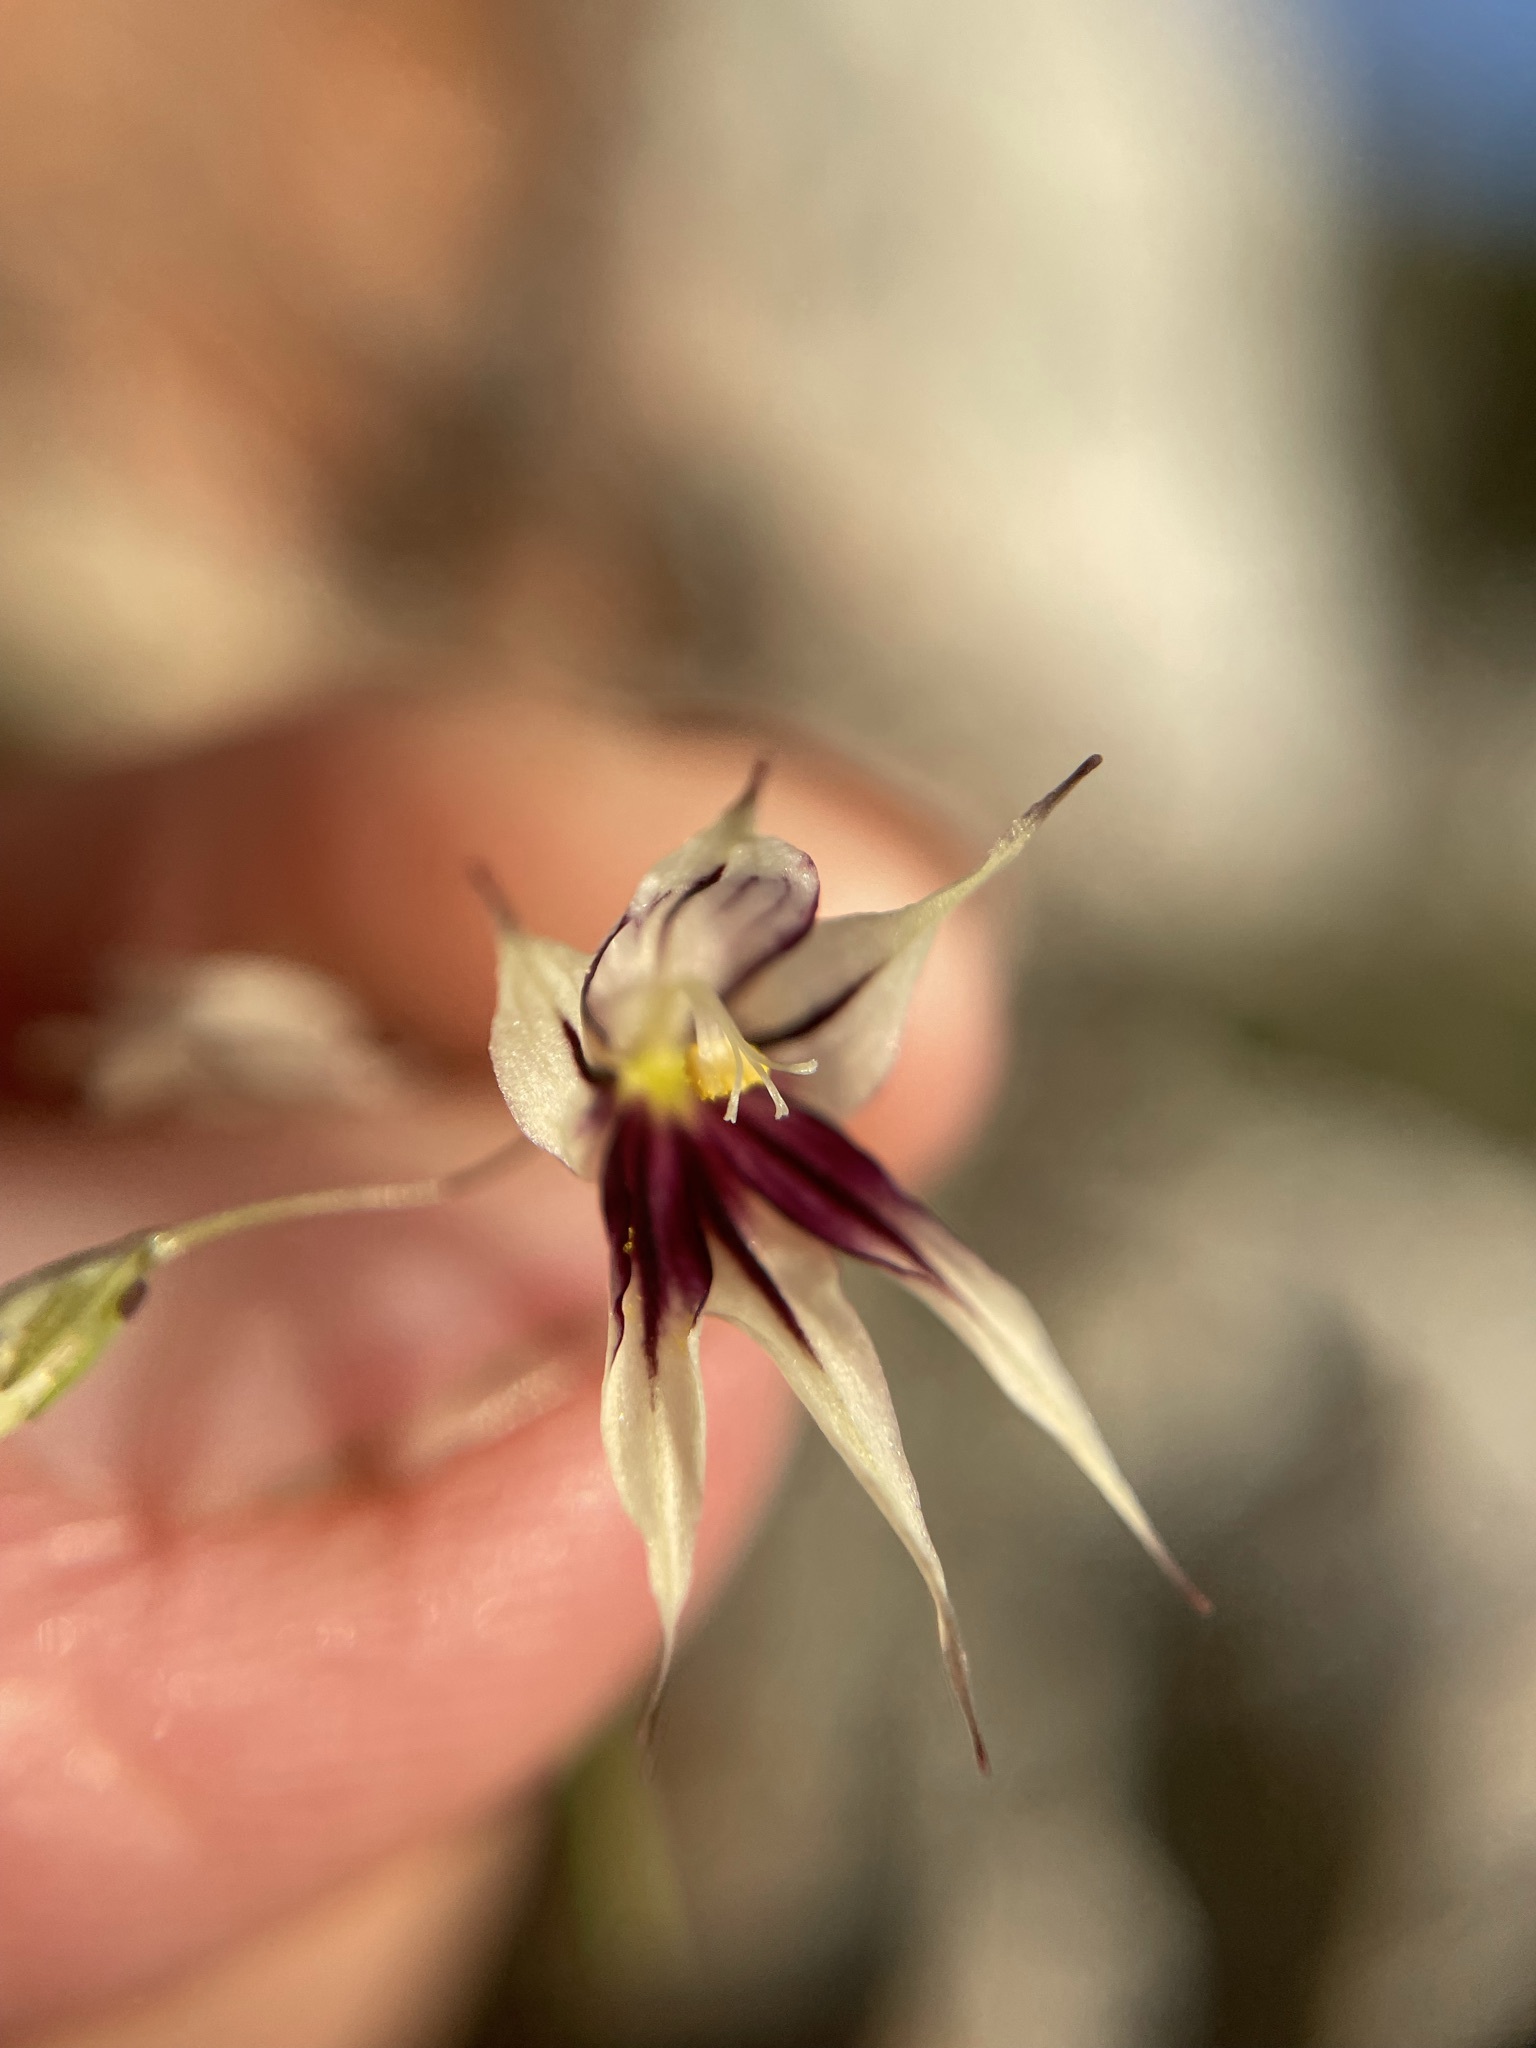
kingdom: Plantae
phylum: Tracheophyta
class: Liliopsida
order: Asparagales
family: Iridaceae
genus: Melasphaerula
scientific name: Melasphaerula graminea
